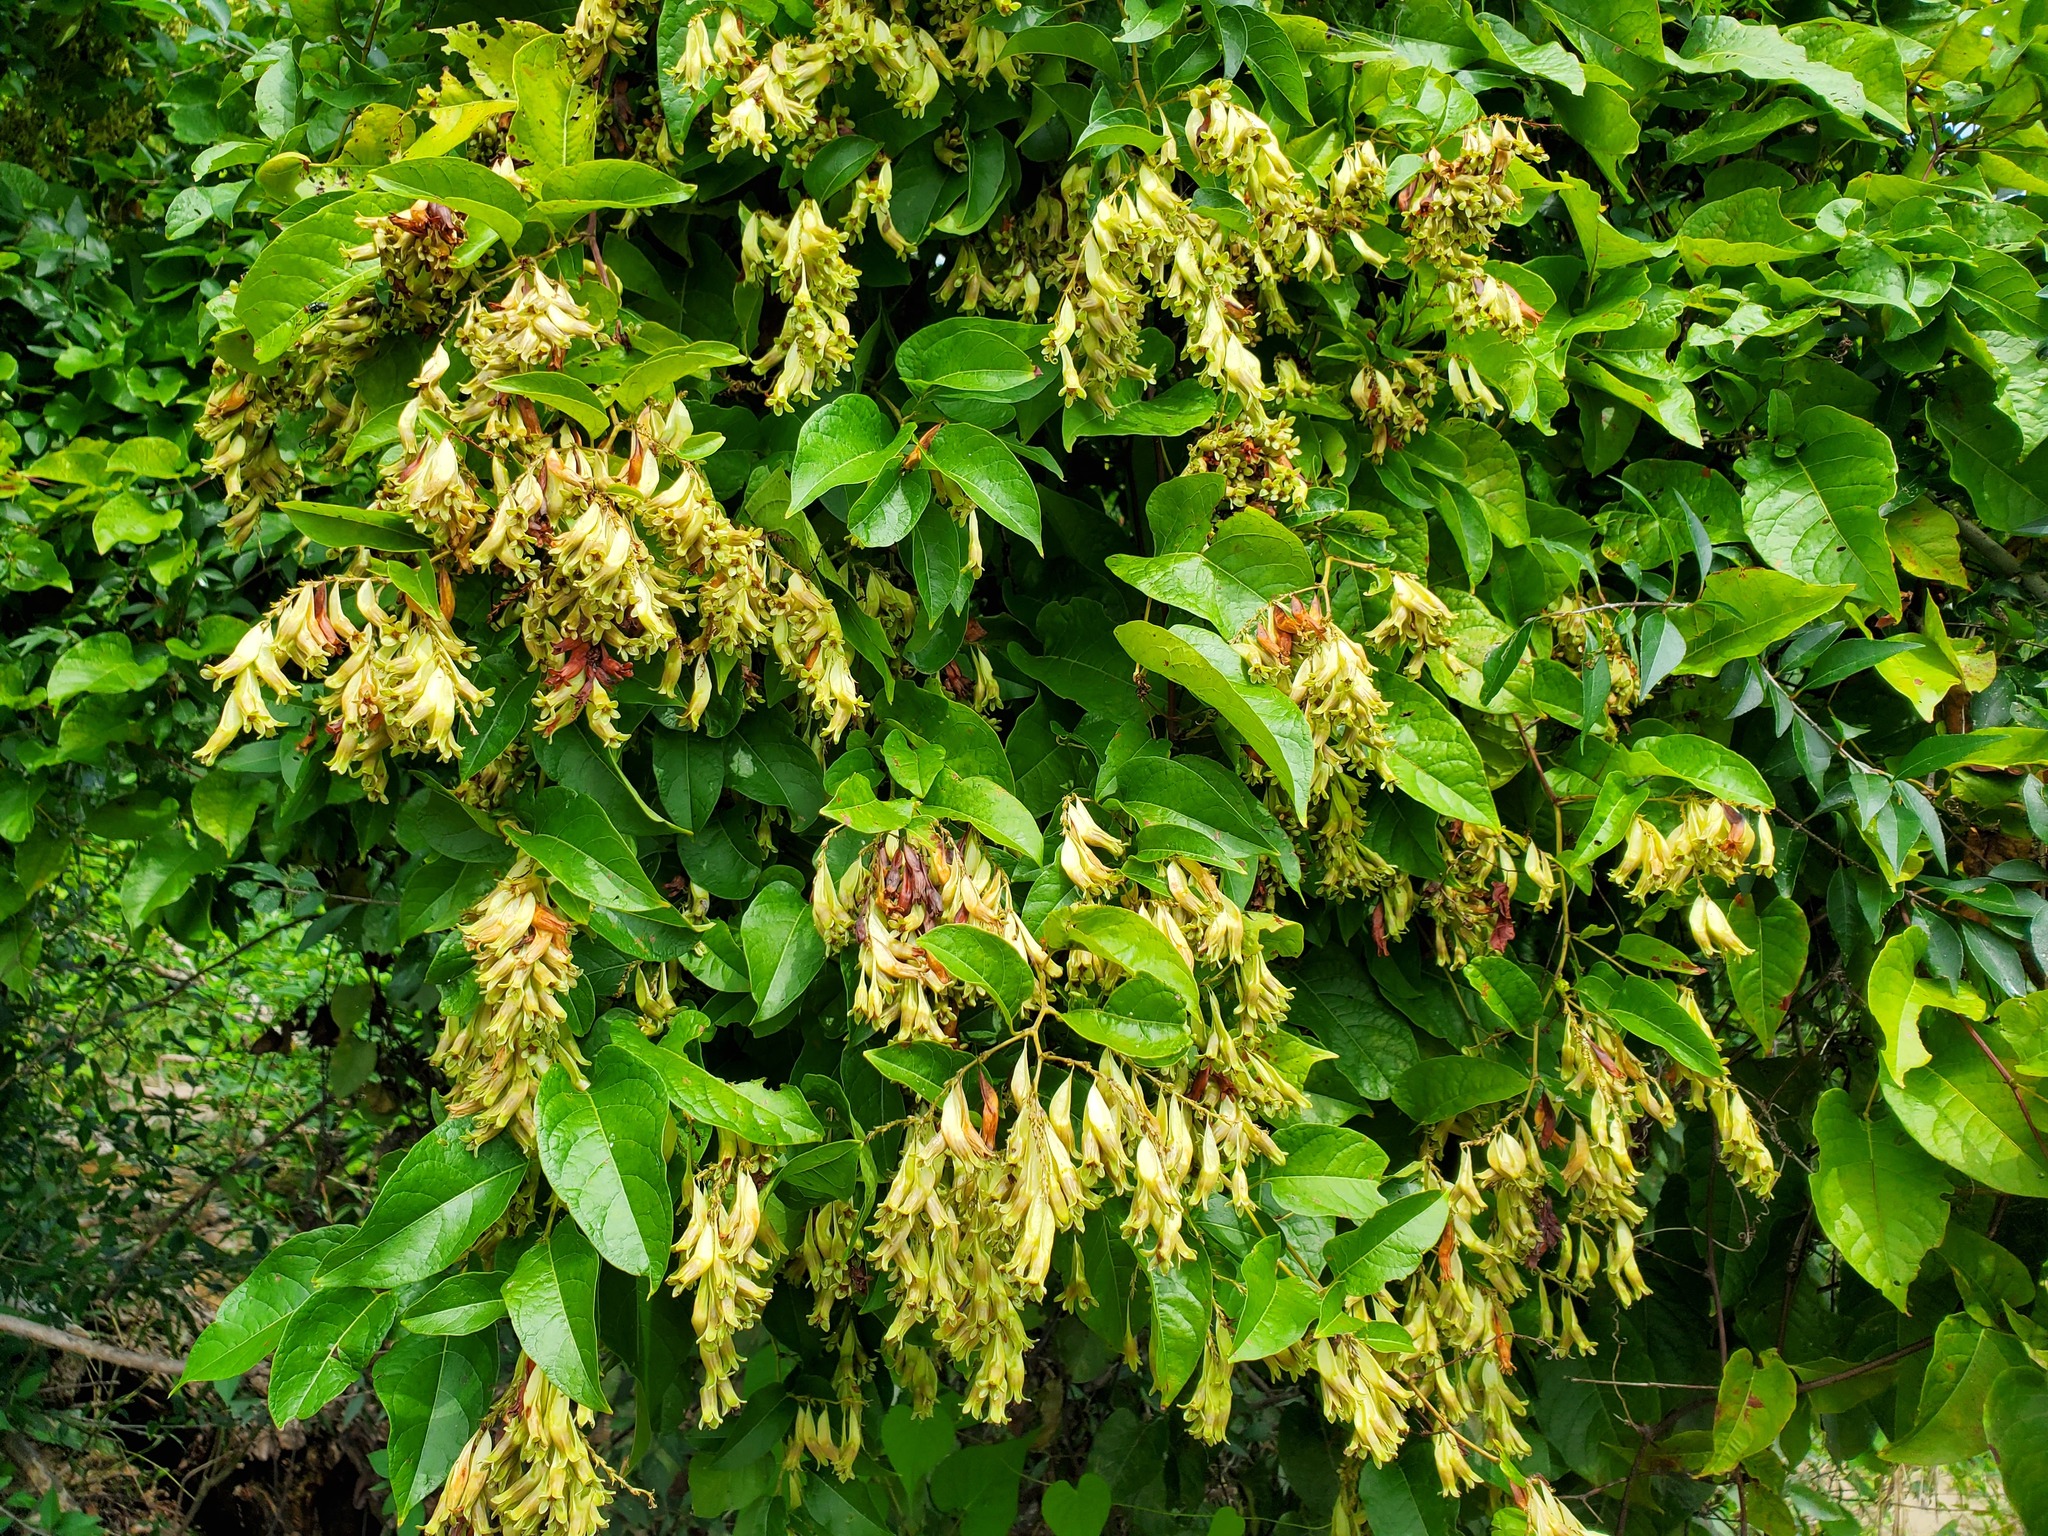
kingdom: Plantae
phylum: Tracheophyta
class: Magnoliopsida
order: Caryophyllales
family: Polygonaceae
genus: Brunnichia
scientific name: Brunnichia ovata
